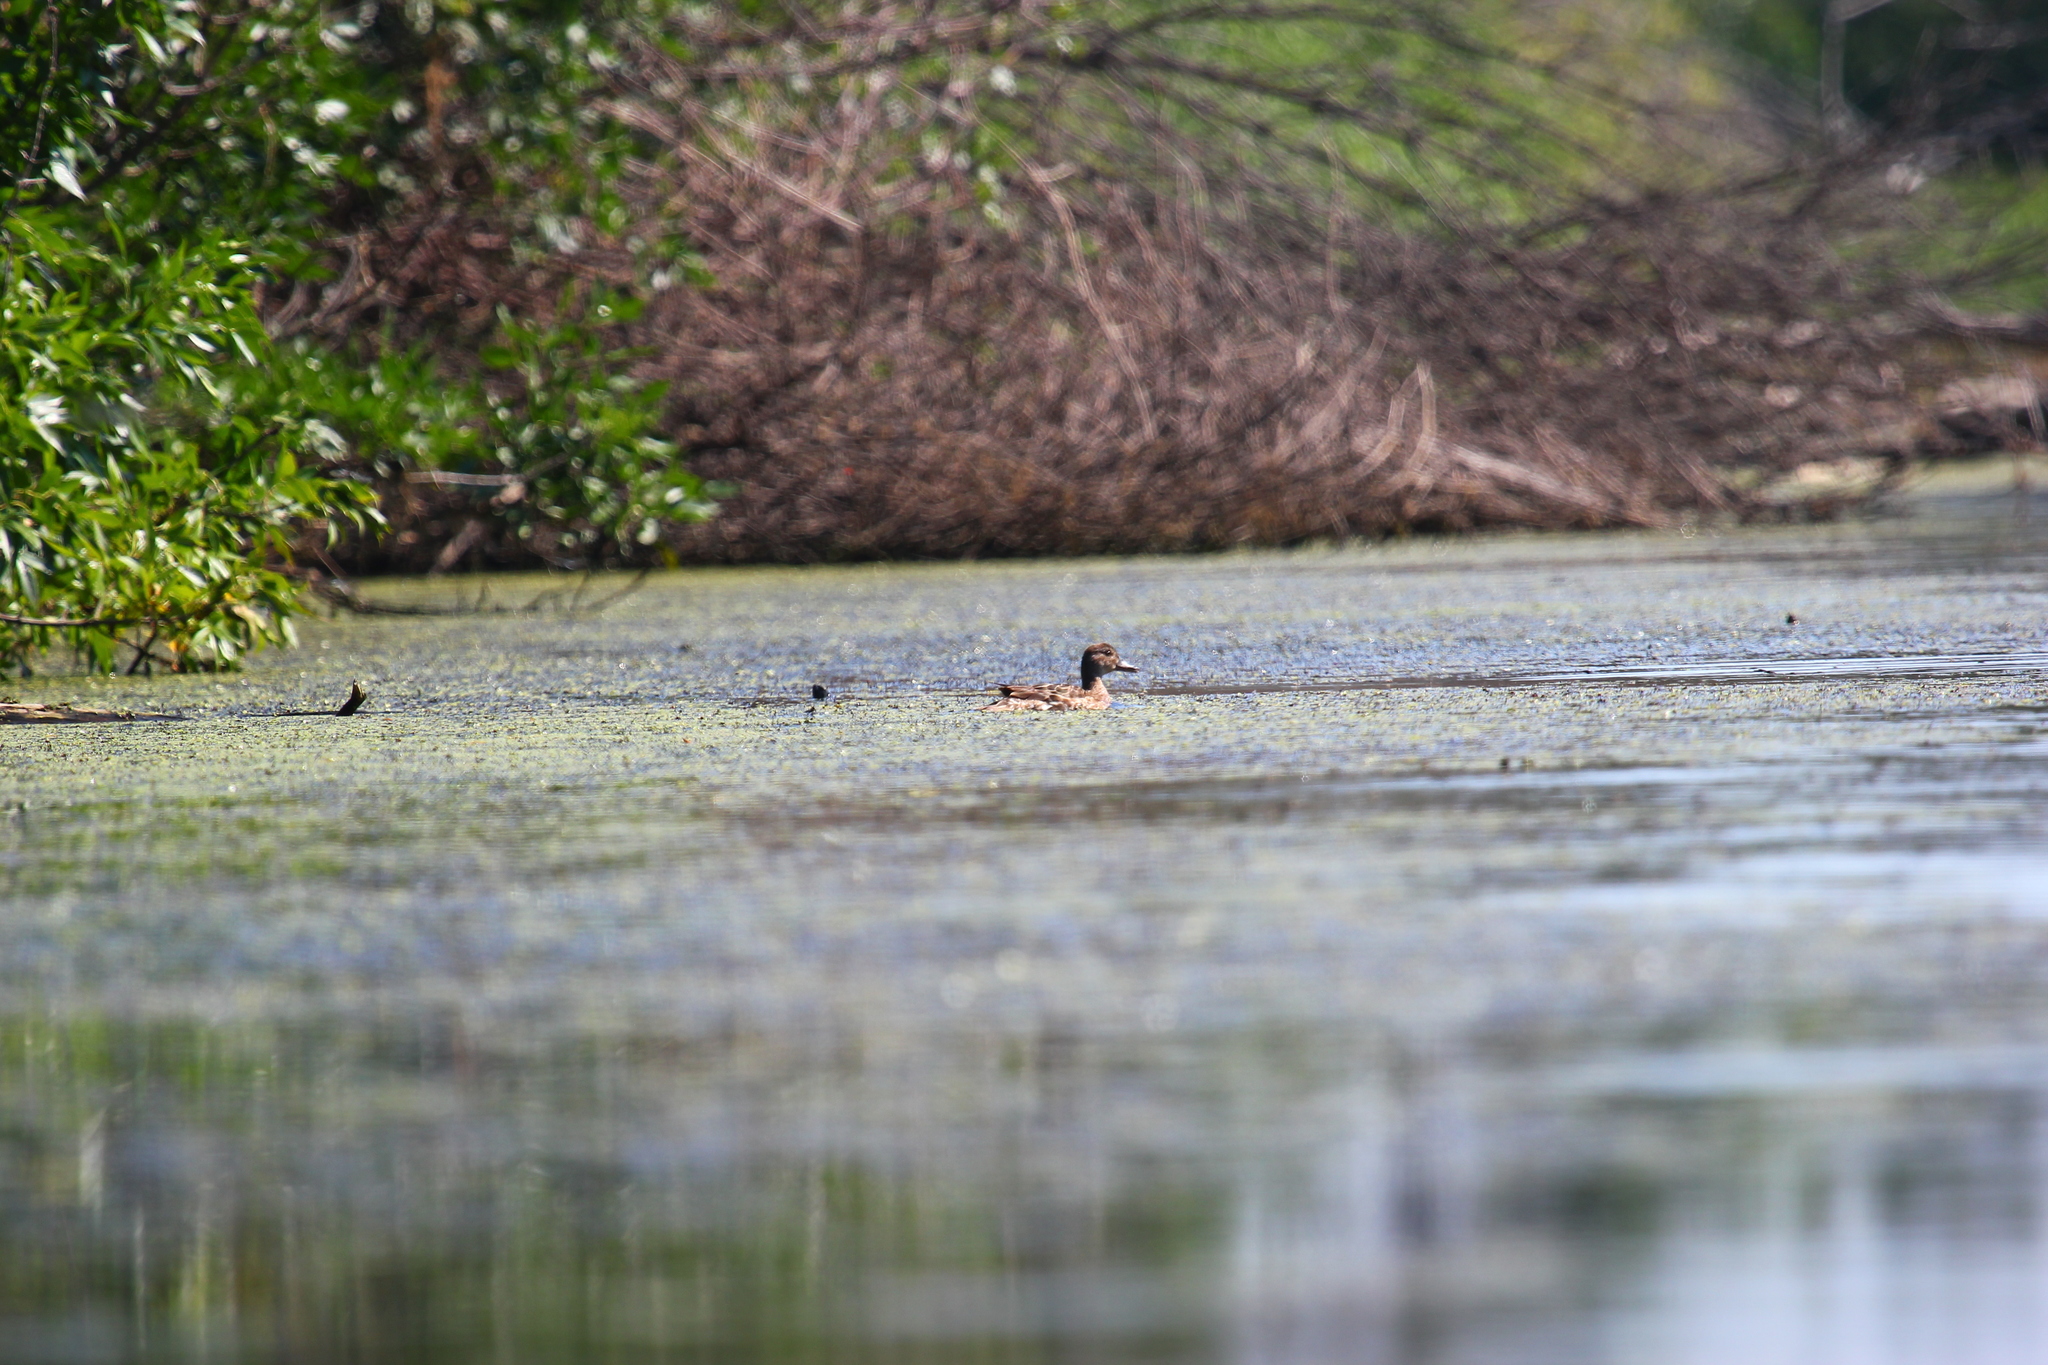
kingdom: Animalia
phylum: Chordata
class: Aves
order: Anseriformes
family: Anatidae
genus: Mareca
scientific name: Mareca penelope
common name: Eurasian wigeon
